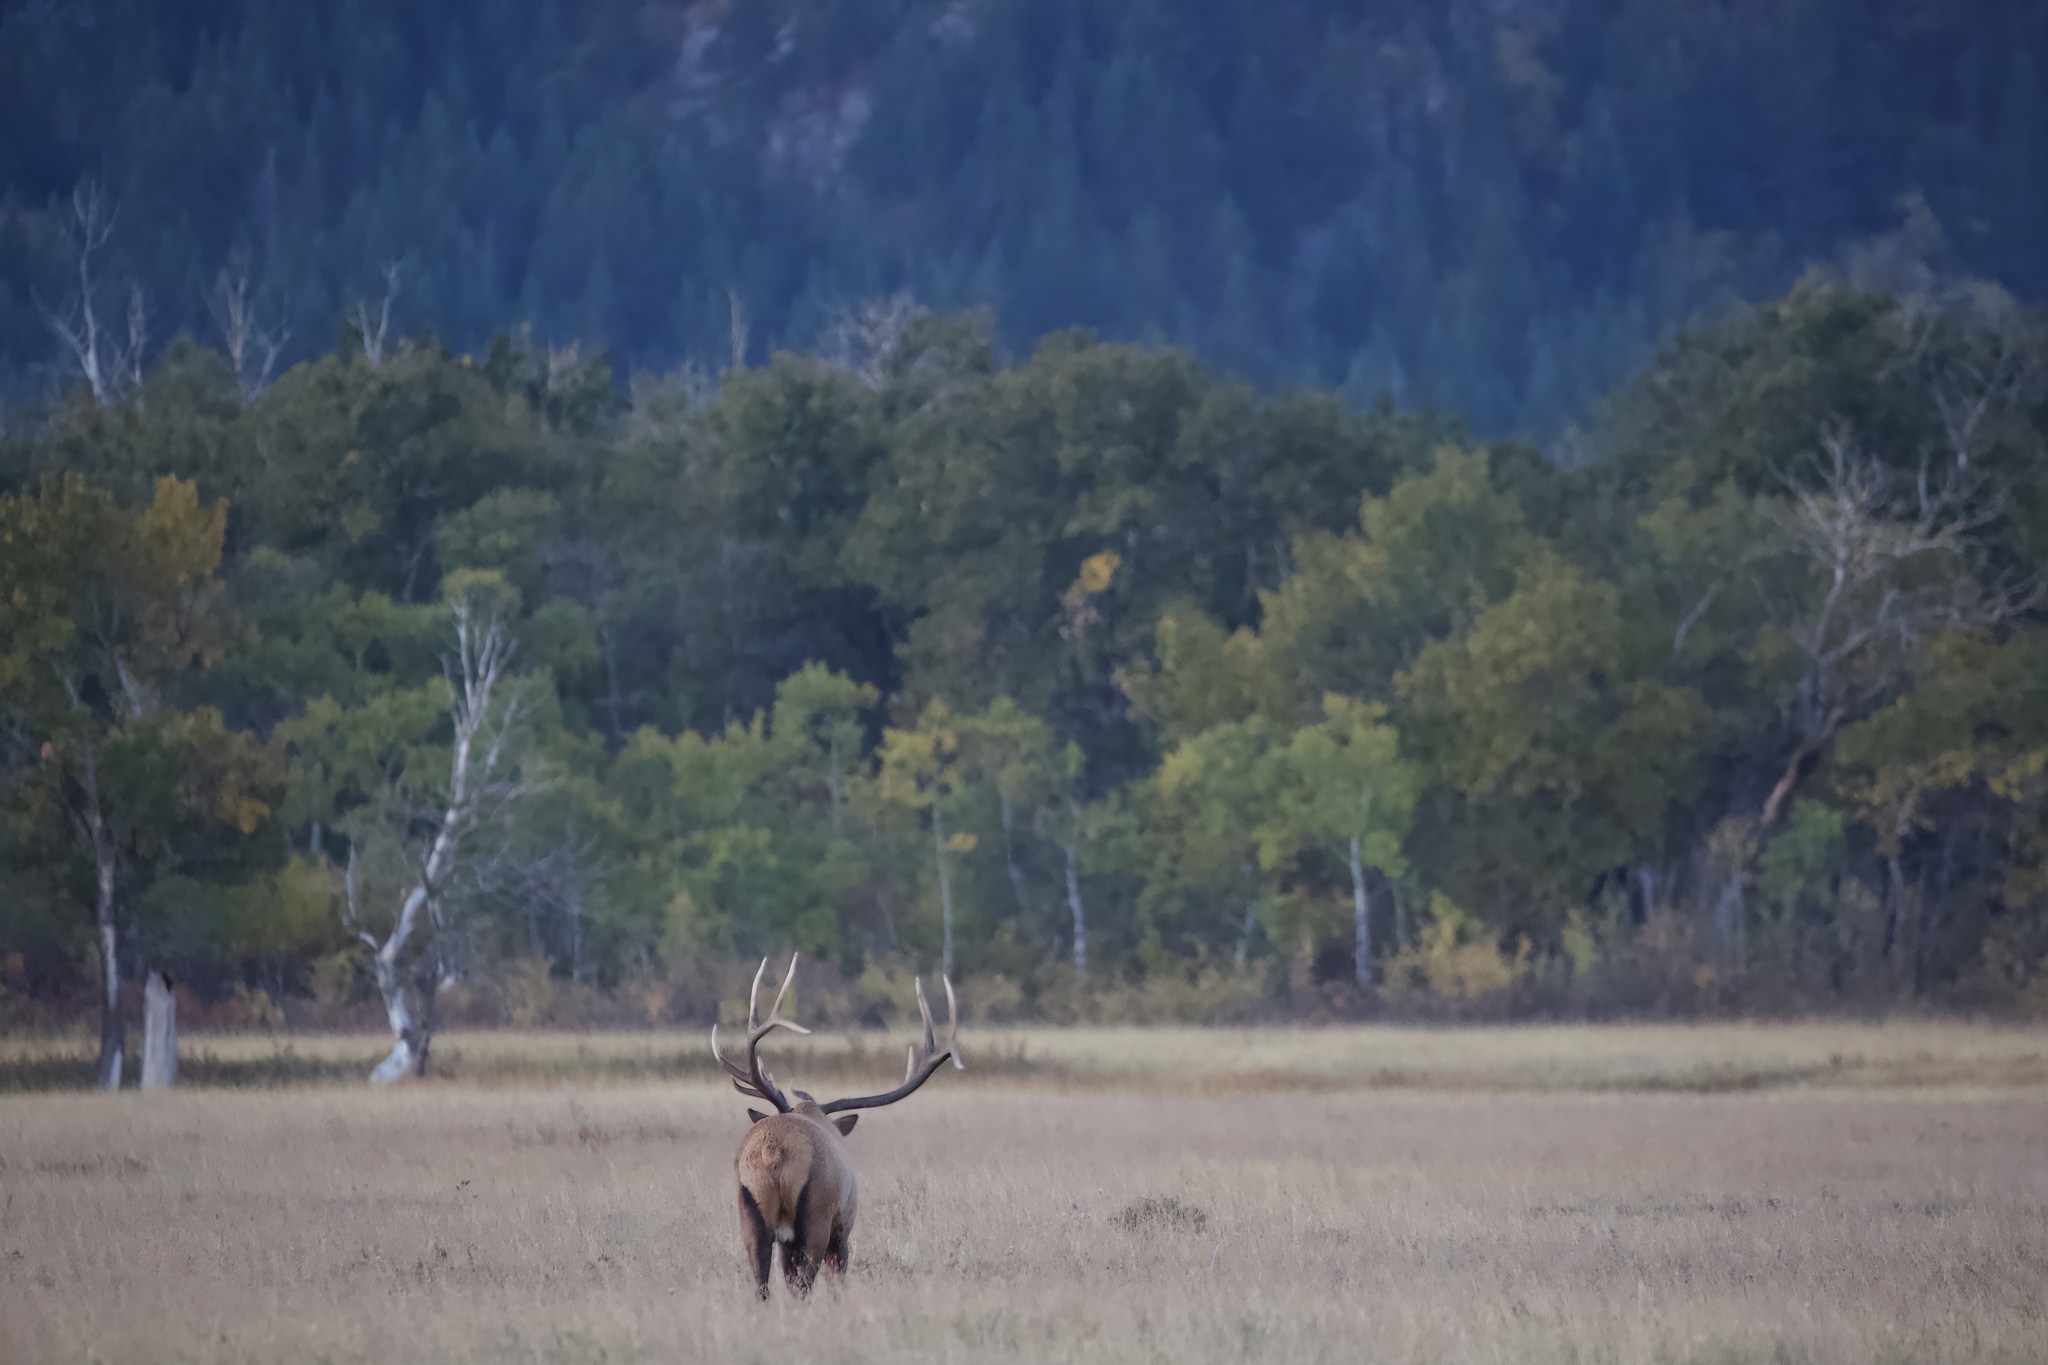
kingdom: Animalia
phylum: Chordata
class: Mammalia
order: Artiodactyla
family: Cervidae
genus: Cervus
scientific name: Cervus elaphus
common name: Red deer
